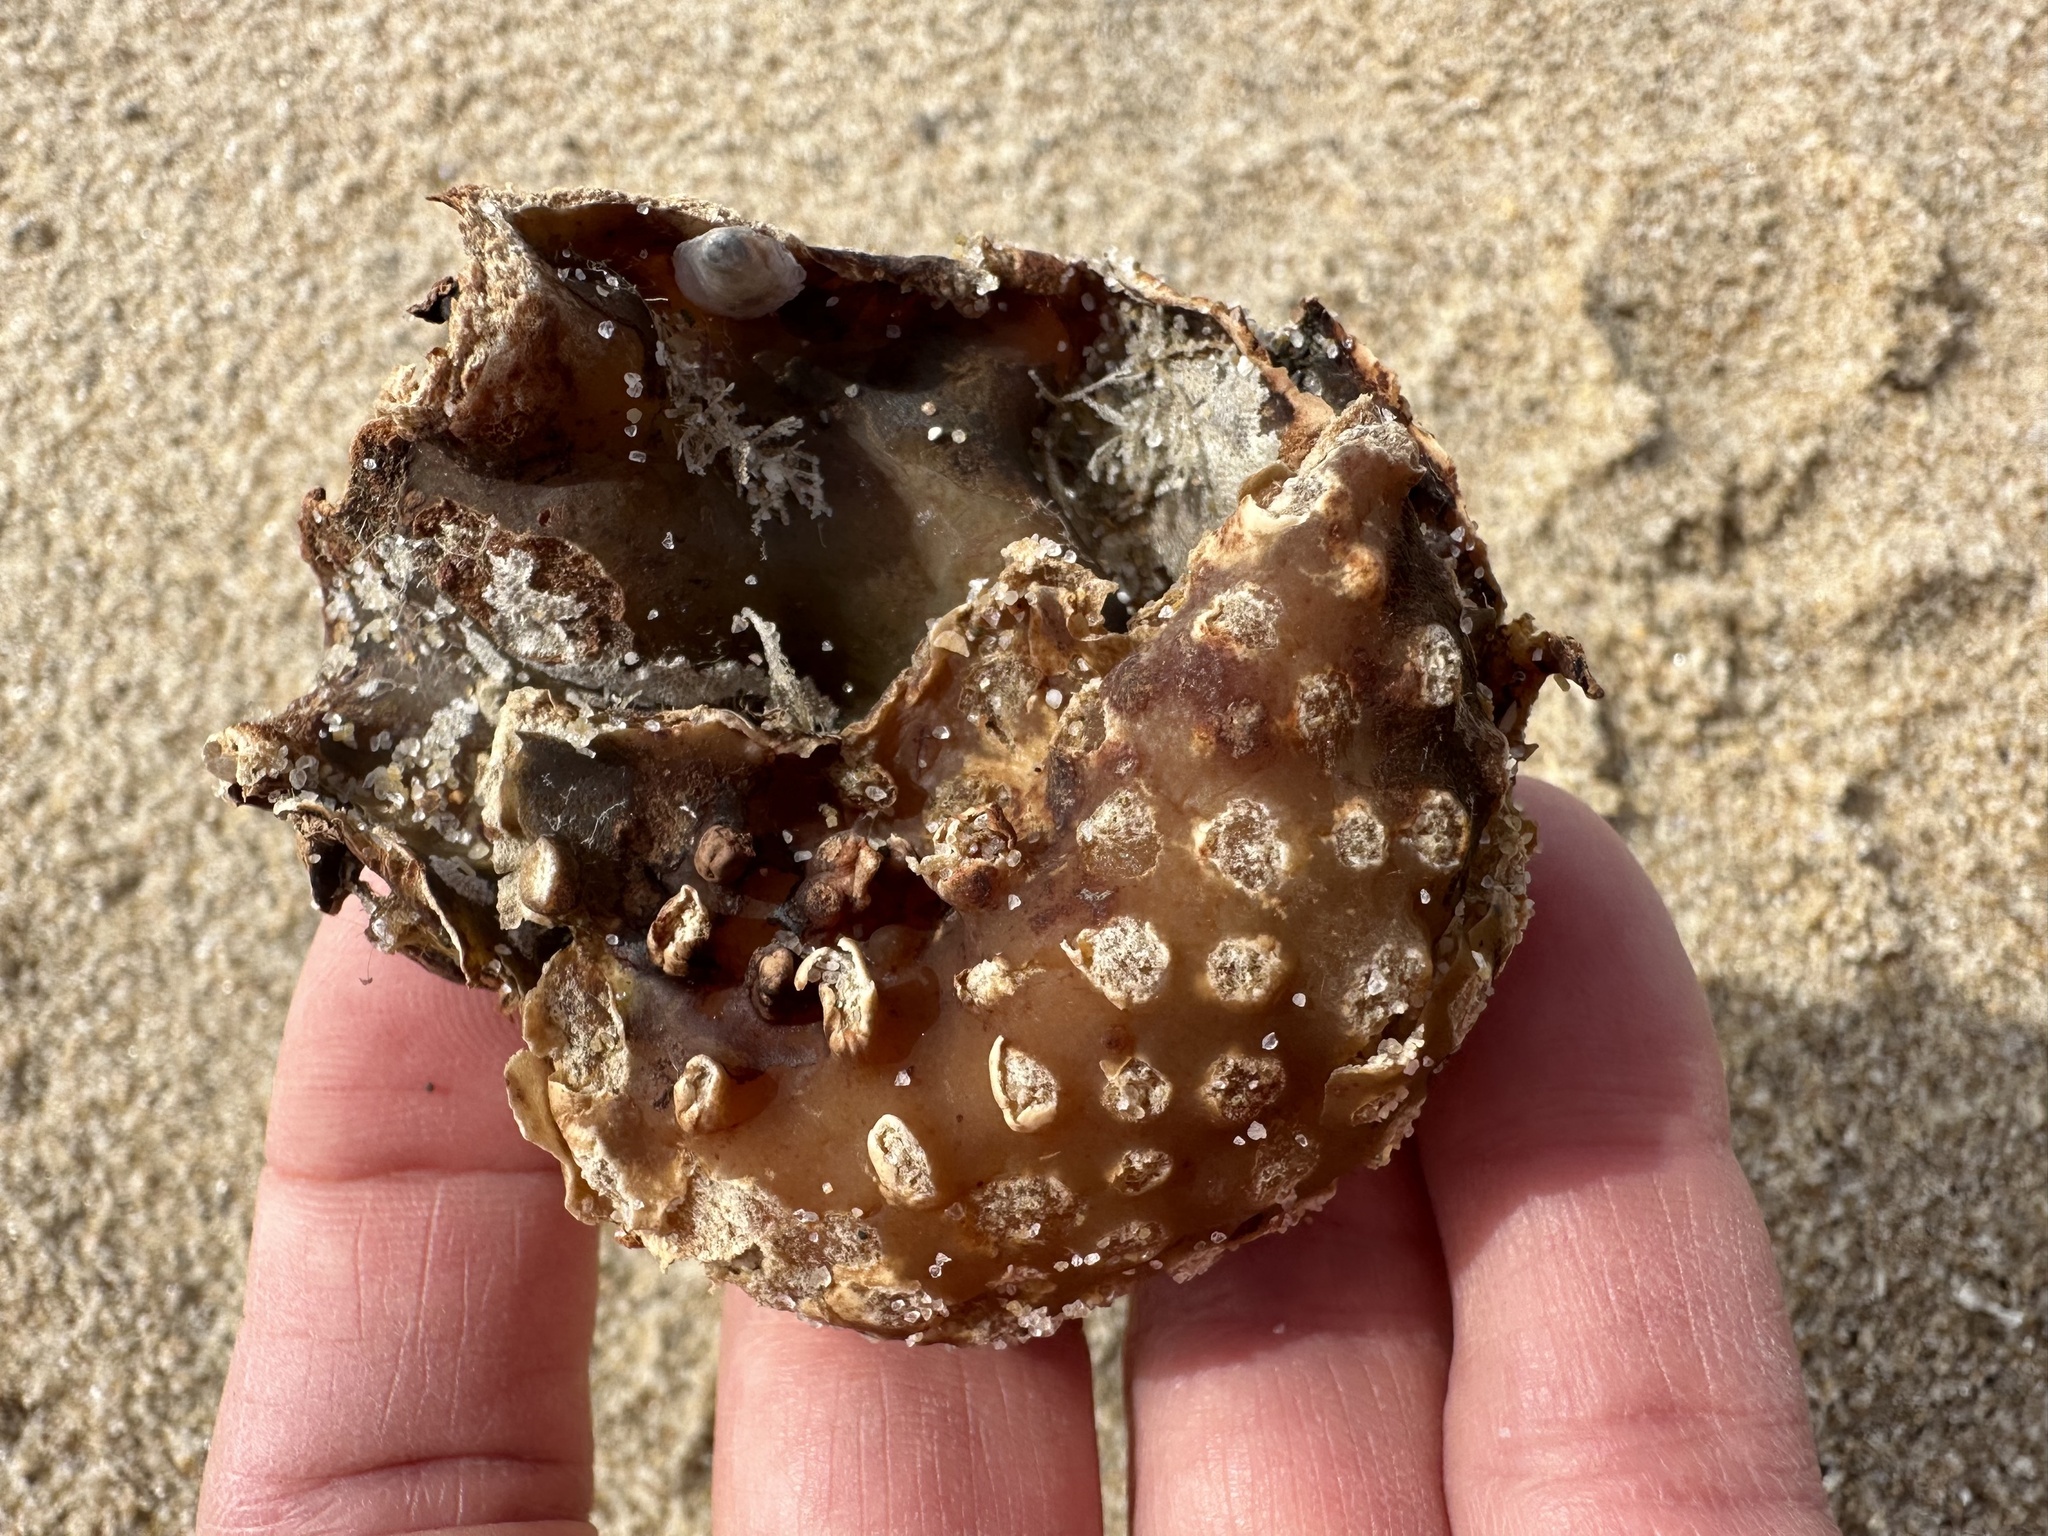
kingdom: Chromista
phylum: Ochrophyta
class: Phaeophyceae
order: Tilopteridales
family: Phyllariaceae
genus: Saccorhiza
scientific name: Saccorhiza polyschides
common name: Furbelows
